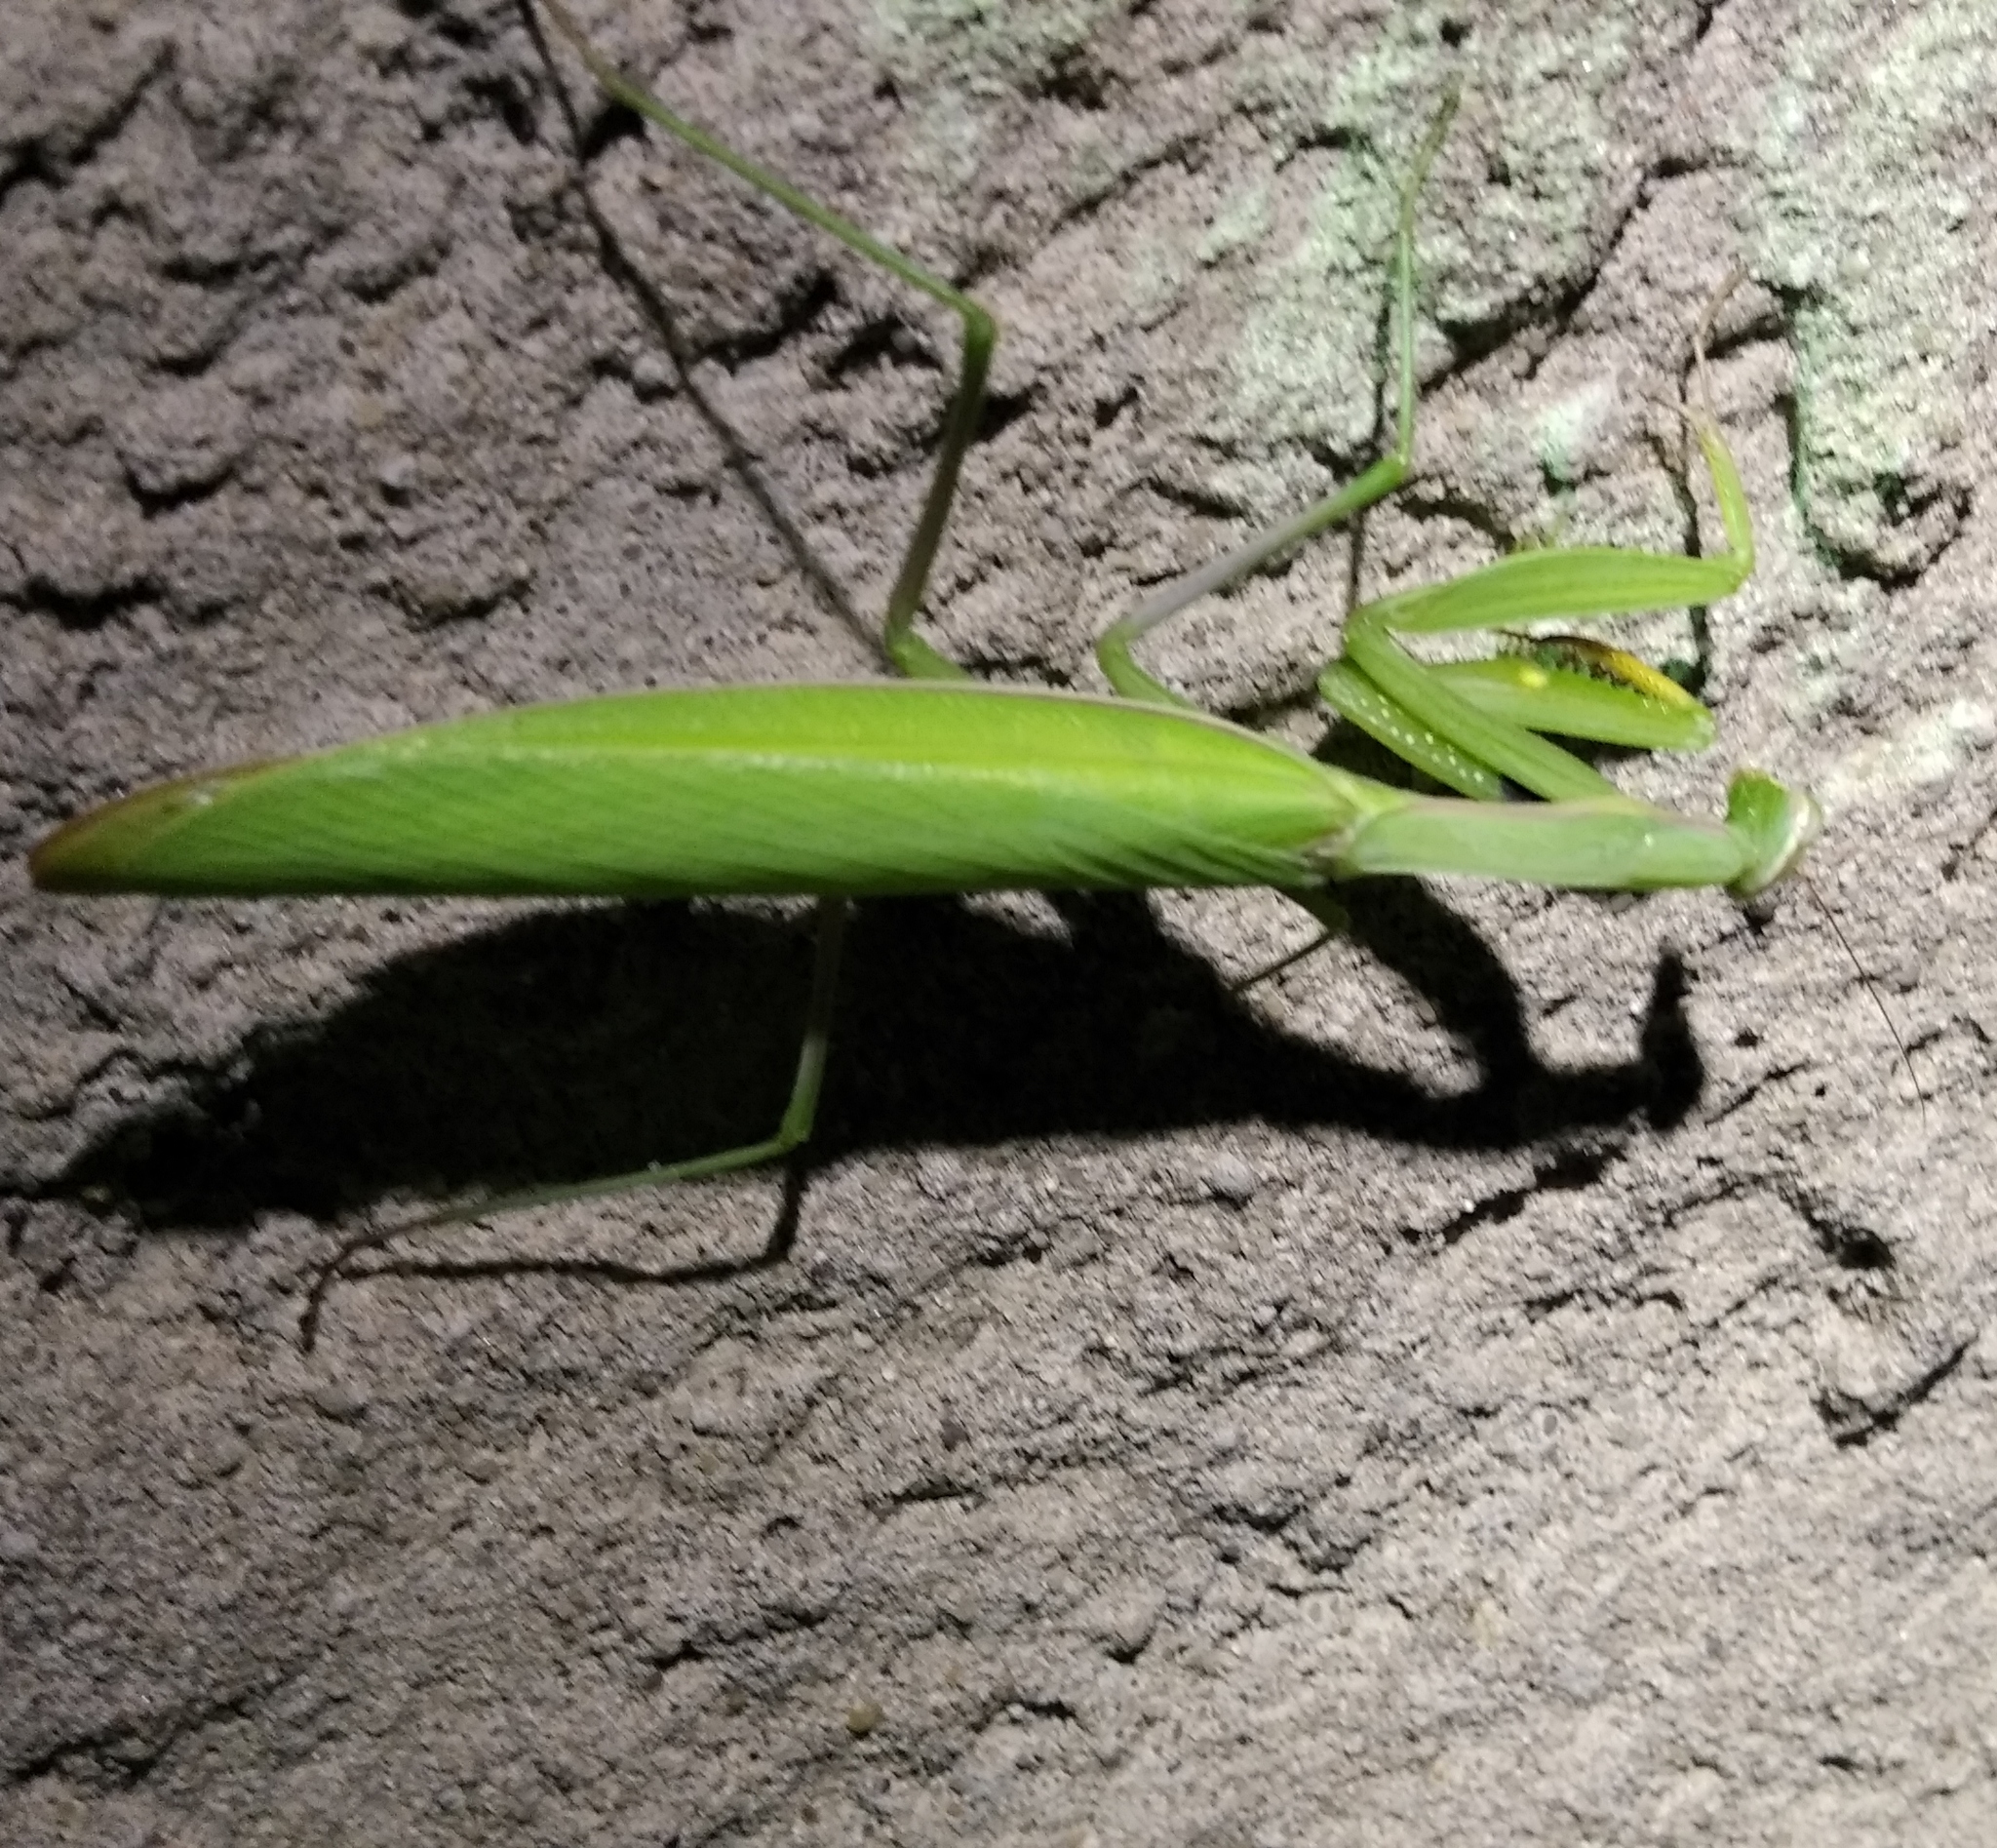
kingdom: Animalia
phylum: Arthropoda
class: Insecta
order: Mantodea
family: Mantidae
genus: Mantis
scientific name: Mantis religiosa
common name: Praying mantis
